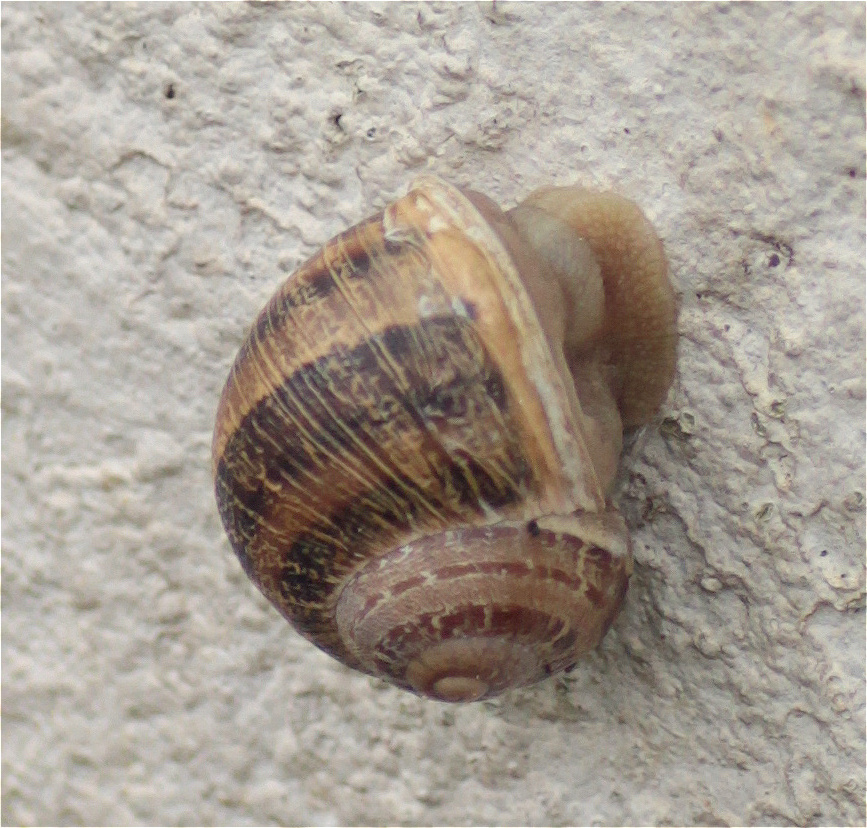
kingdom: Animalia
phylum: Mollusca
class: Gastropoda
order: Stylommatophora
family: Helicidae
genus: Cornu
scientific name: Cornu aspersum
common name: Brown garden snail
